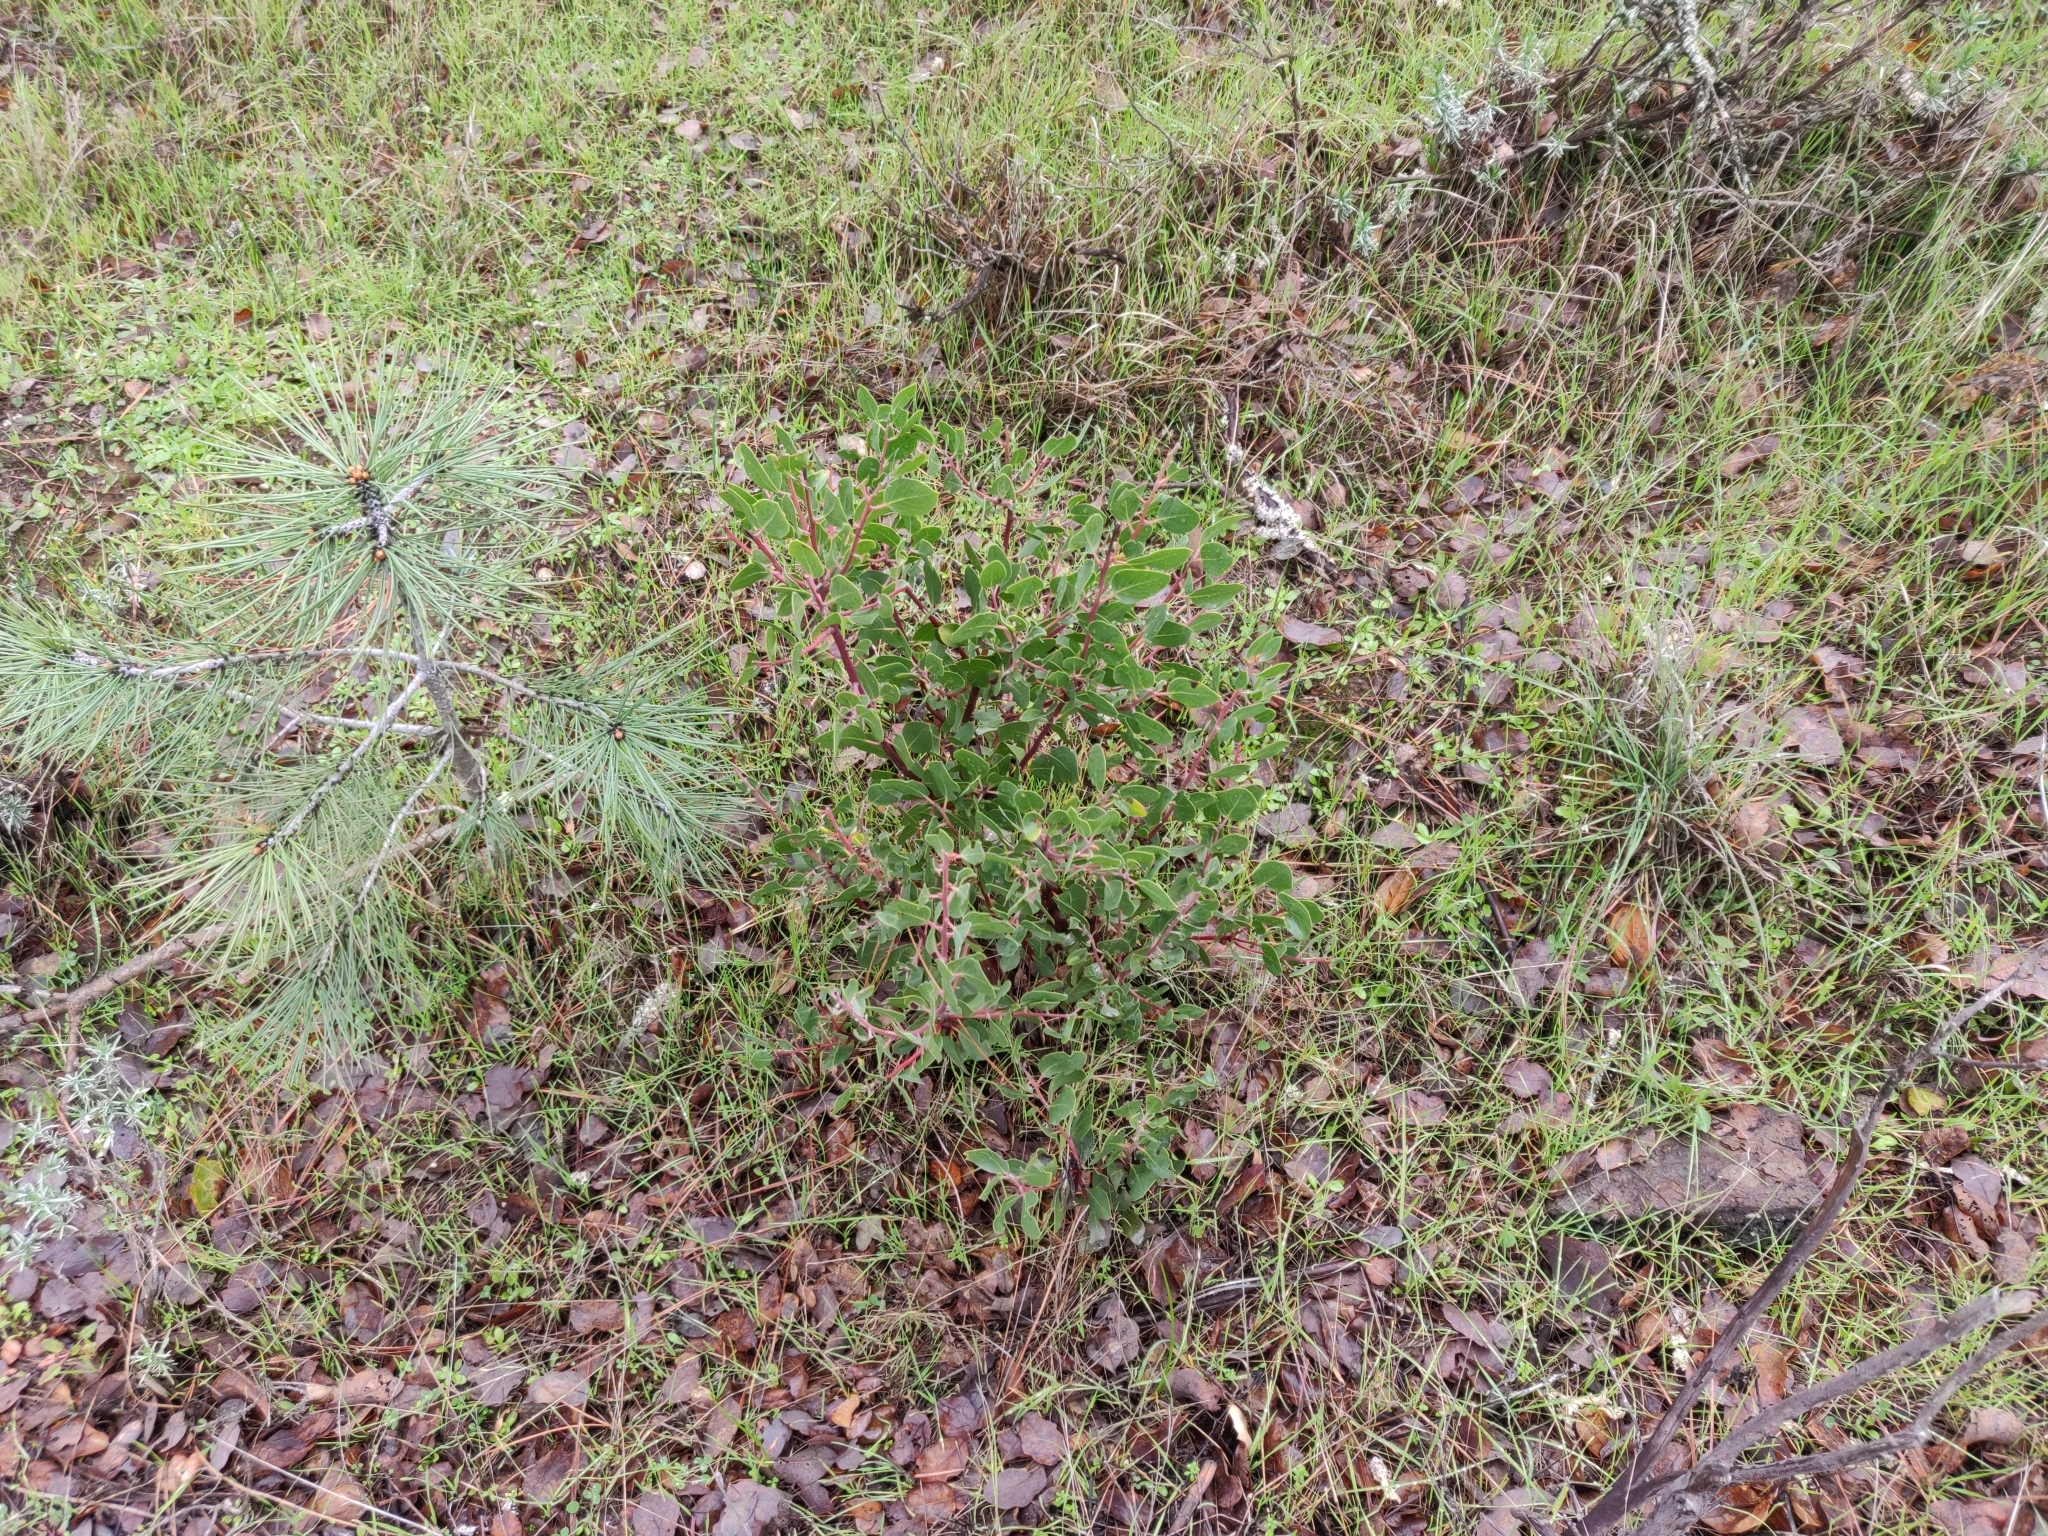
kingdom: Plantae
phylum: Tracheophyta
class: Magnoliopsida
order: Ericales
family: Ericaceae
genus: Arctostaphylos
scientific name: Arctostaphylos manzanita
